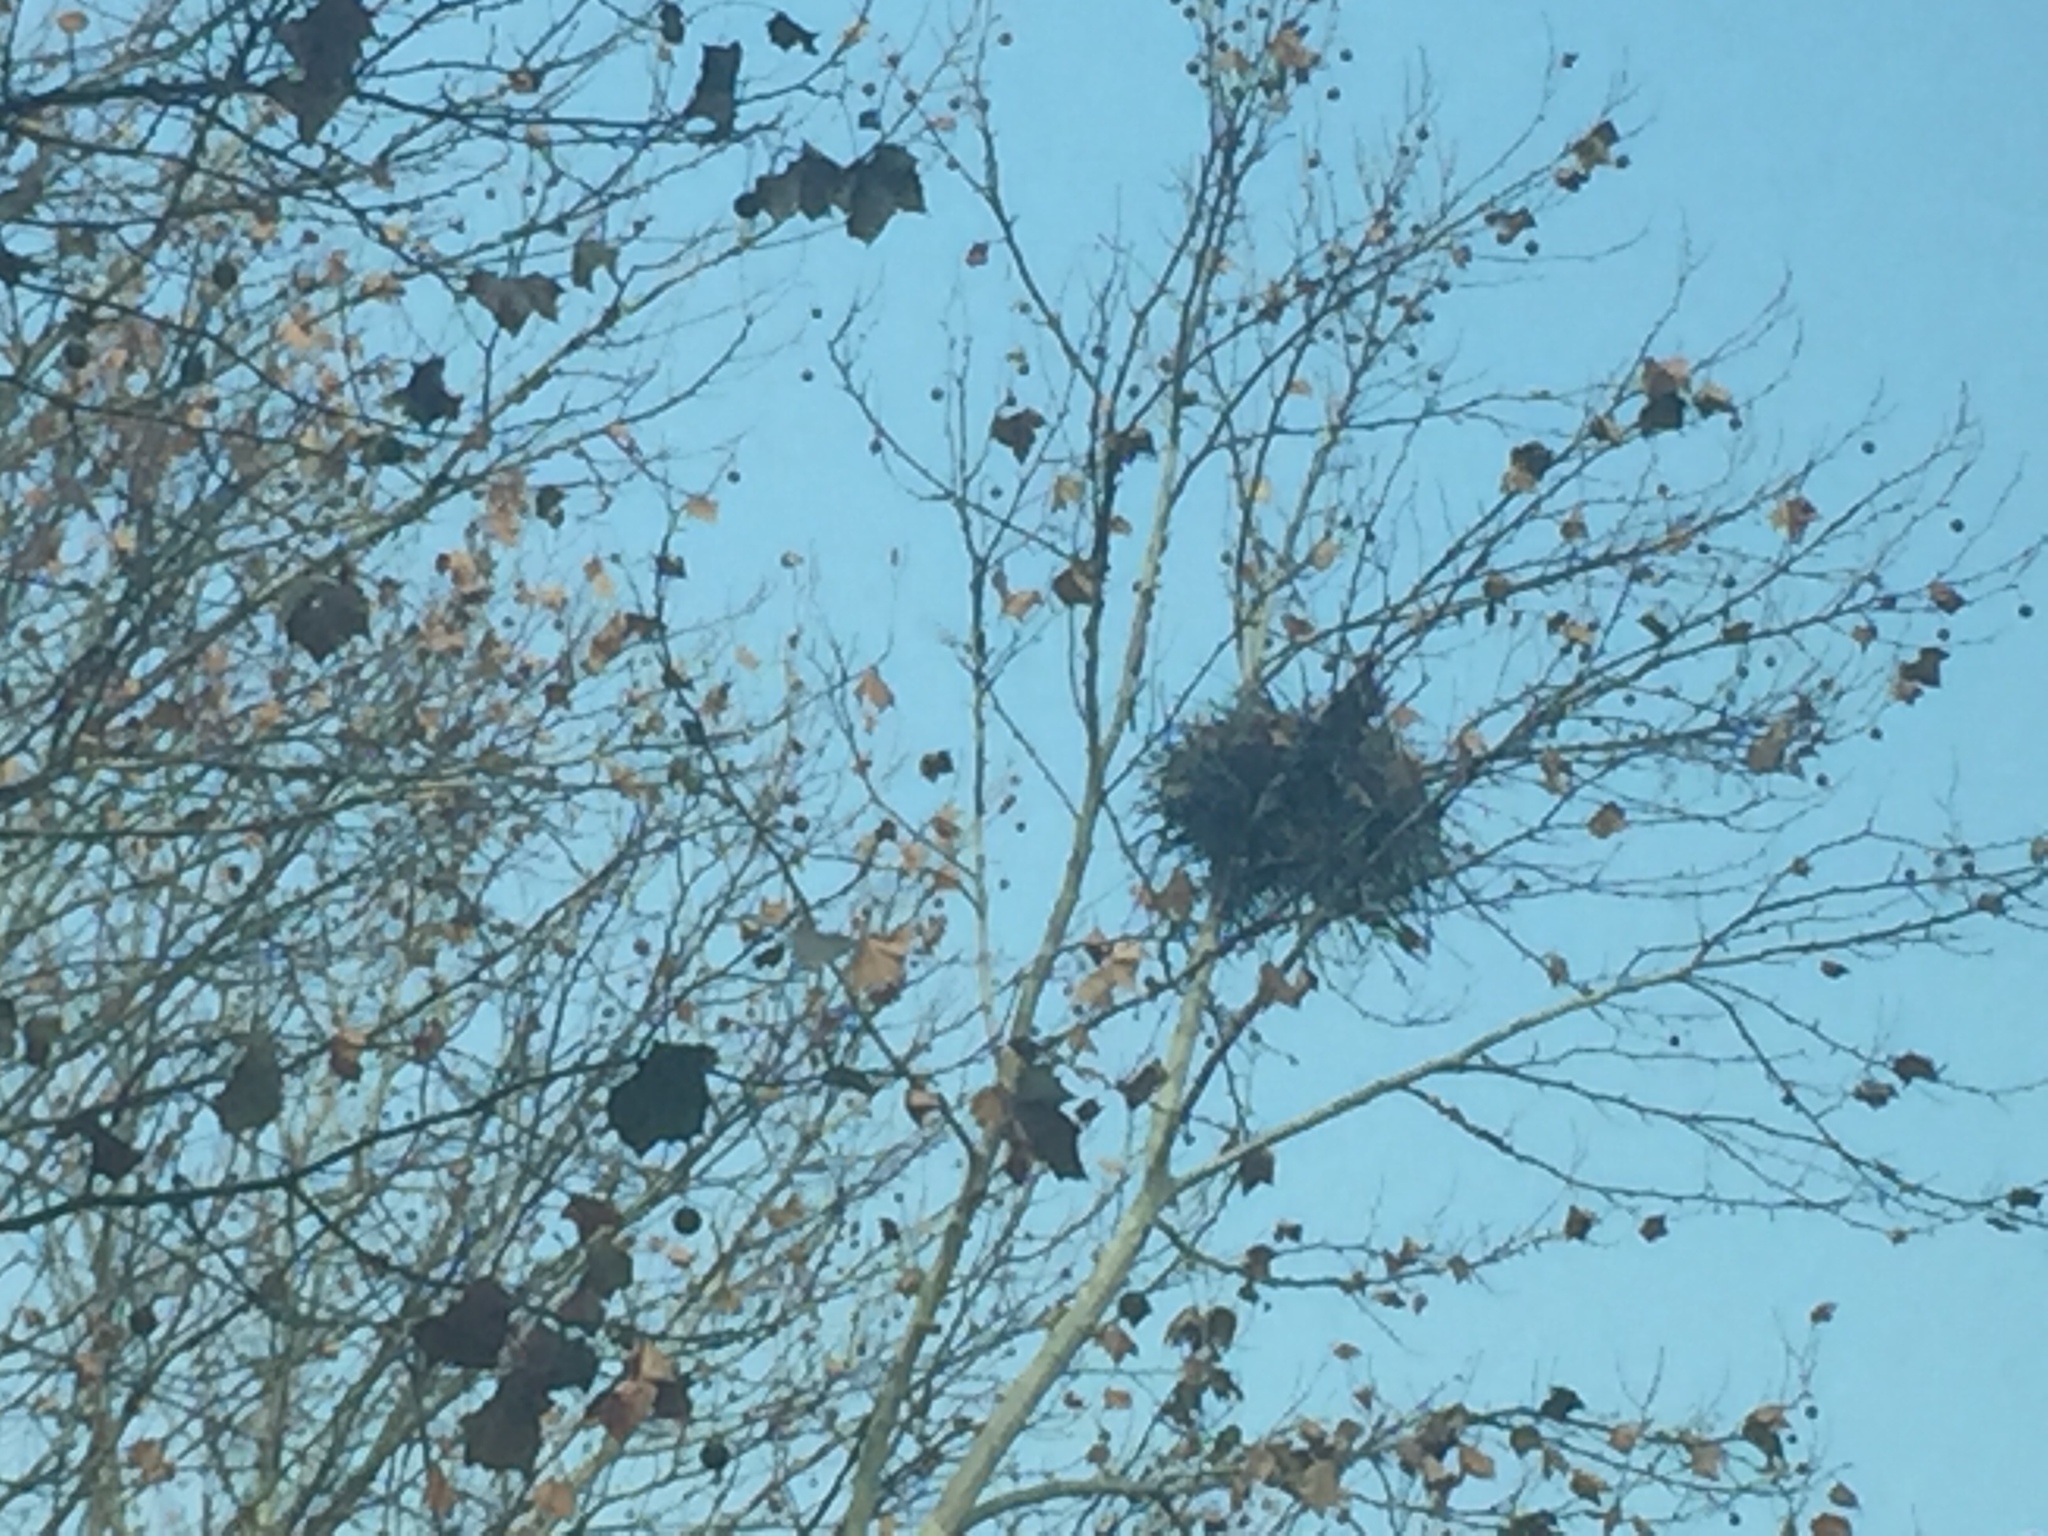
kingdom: Animalia
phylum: Chordata
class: Aves
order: Passeriformes
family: Corvidae
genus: Pica
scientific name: Pica serica
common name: Oriental magpie
